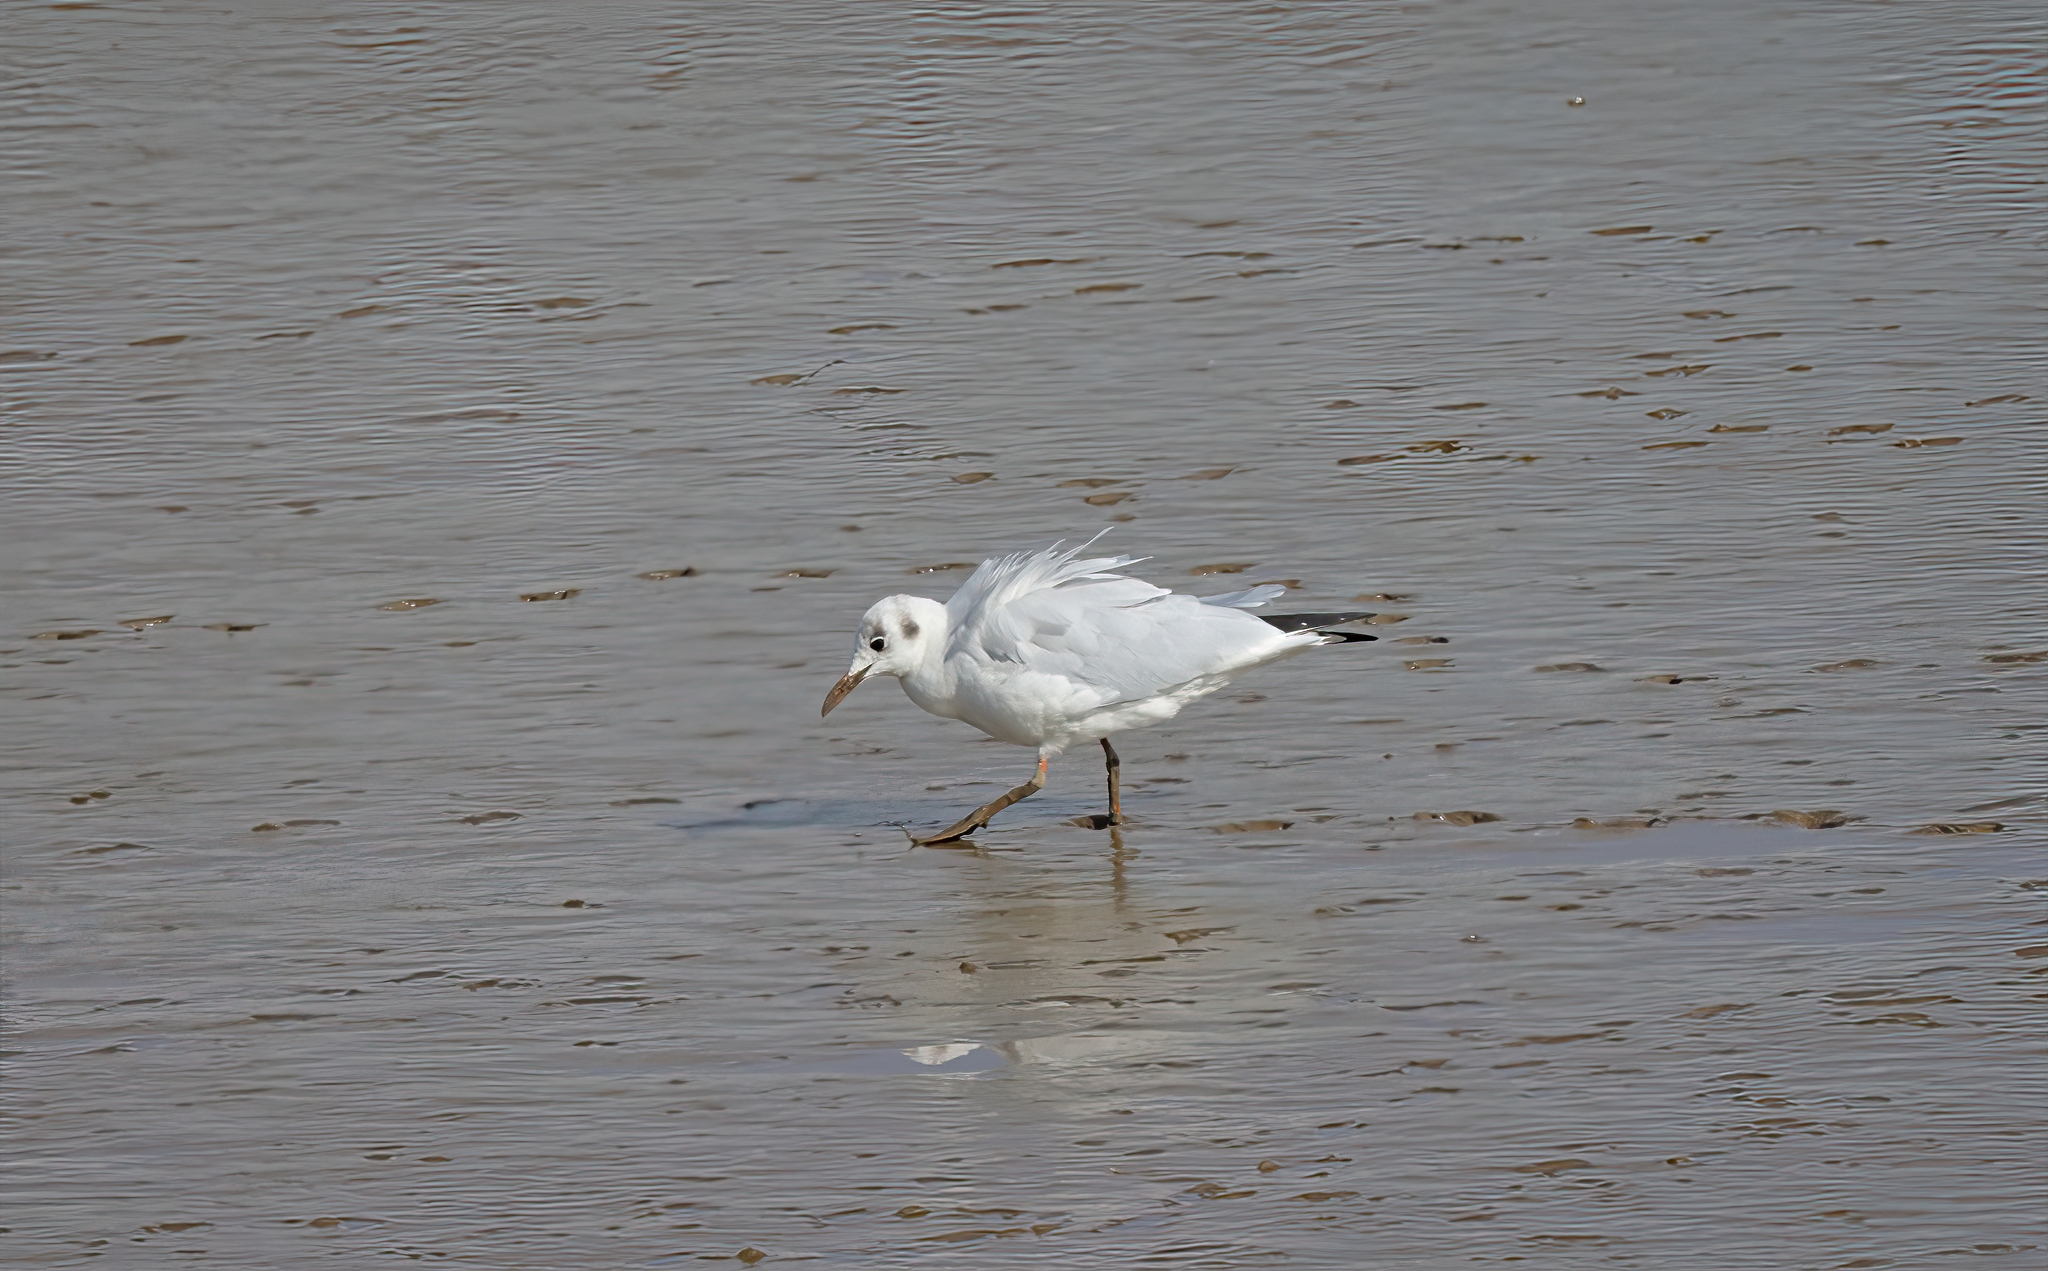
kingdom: Animalia
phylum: Chordata
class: Aves
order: Charadriiformes
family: Laridae
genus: Chroicocephalus
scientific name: Chroicocephalus ridibundus
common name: Black-headed gull
